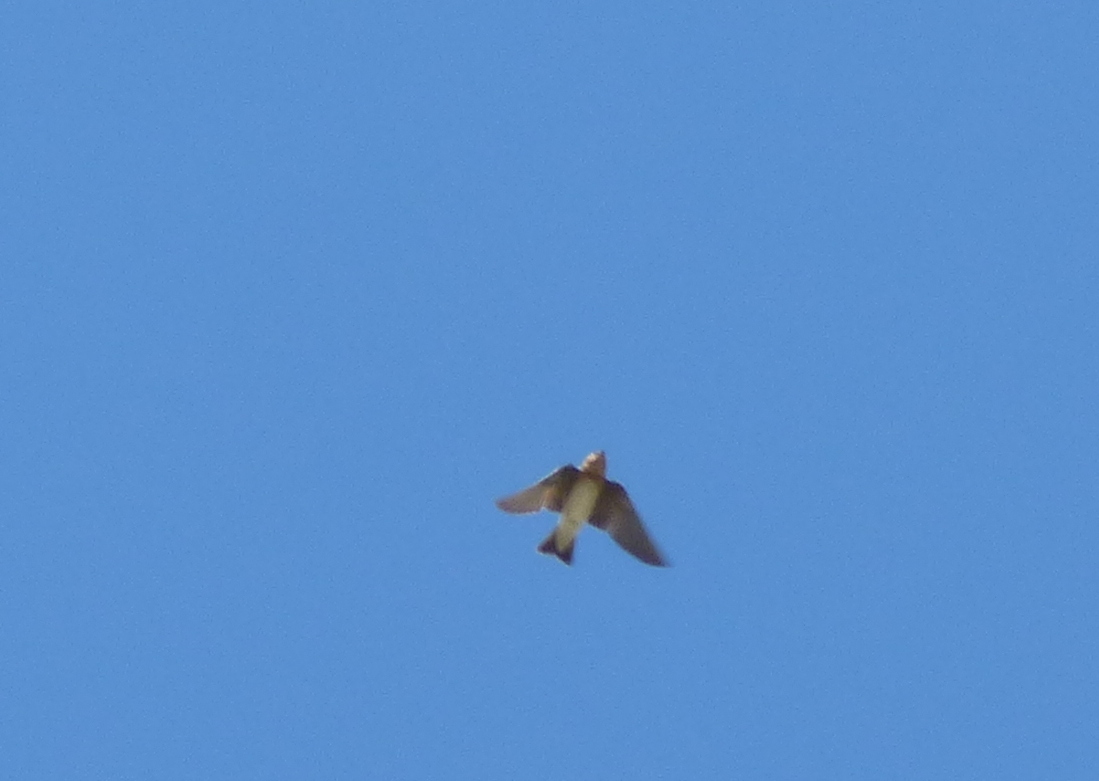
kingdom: Animalia
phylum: Chordata
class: Aves
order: Passeriformes
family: Hirundinidae
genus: Alopochelidon
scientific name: Alopochelidon fucata
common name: Tawny-headed swallow
